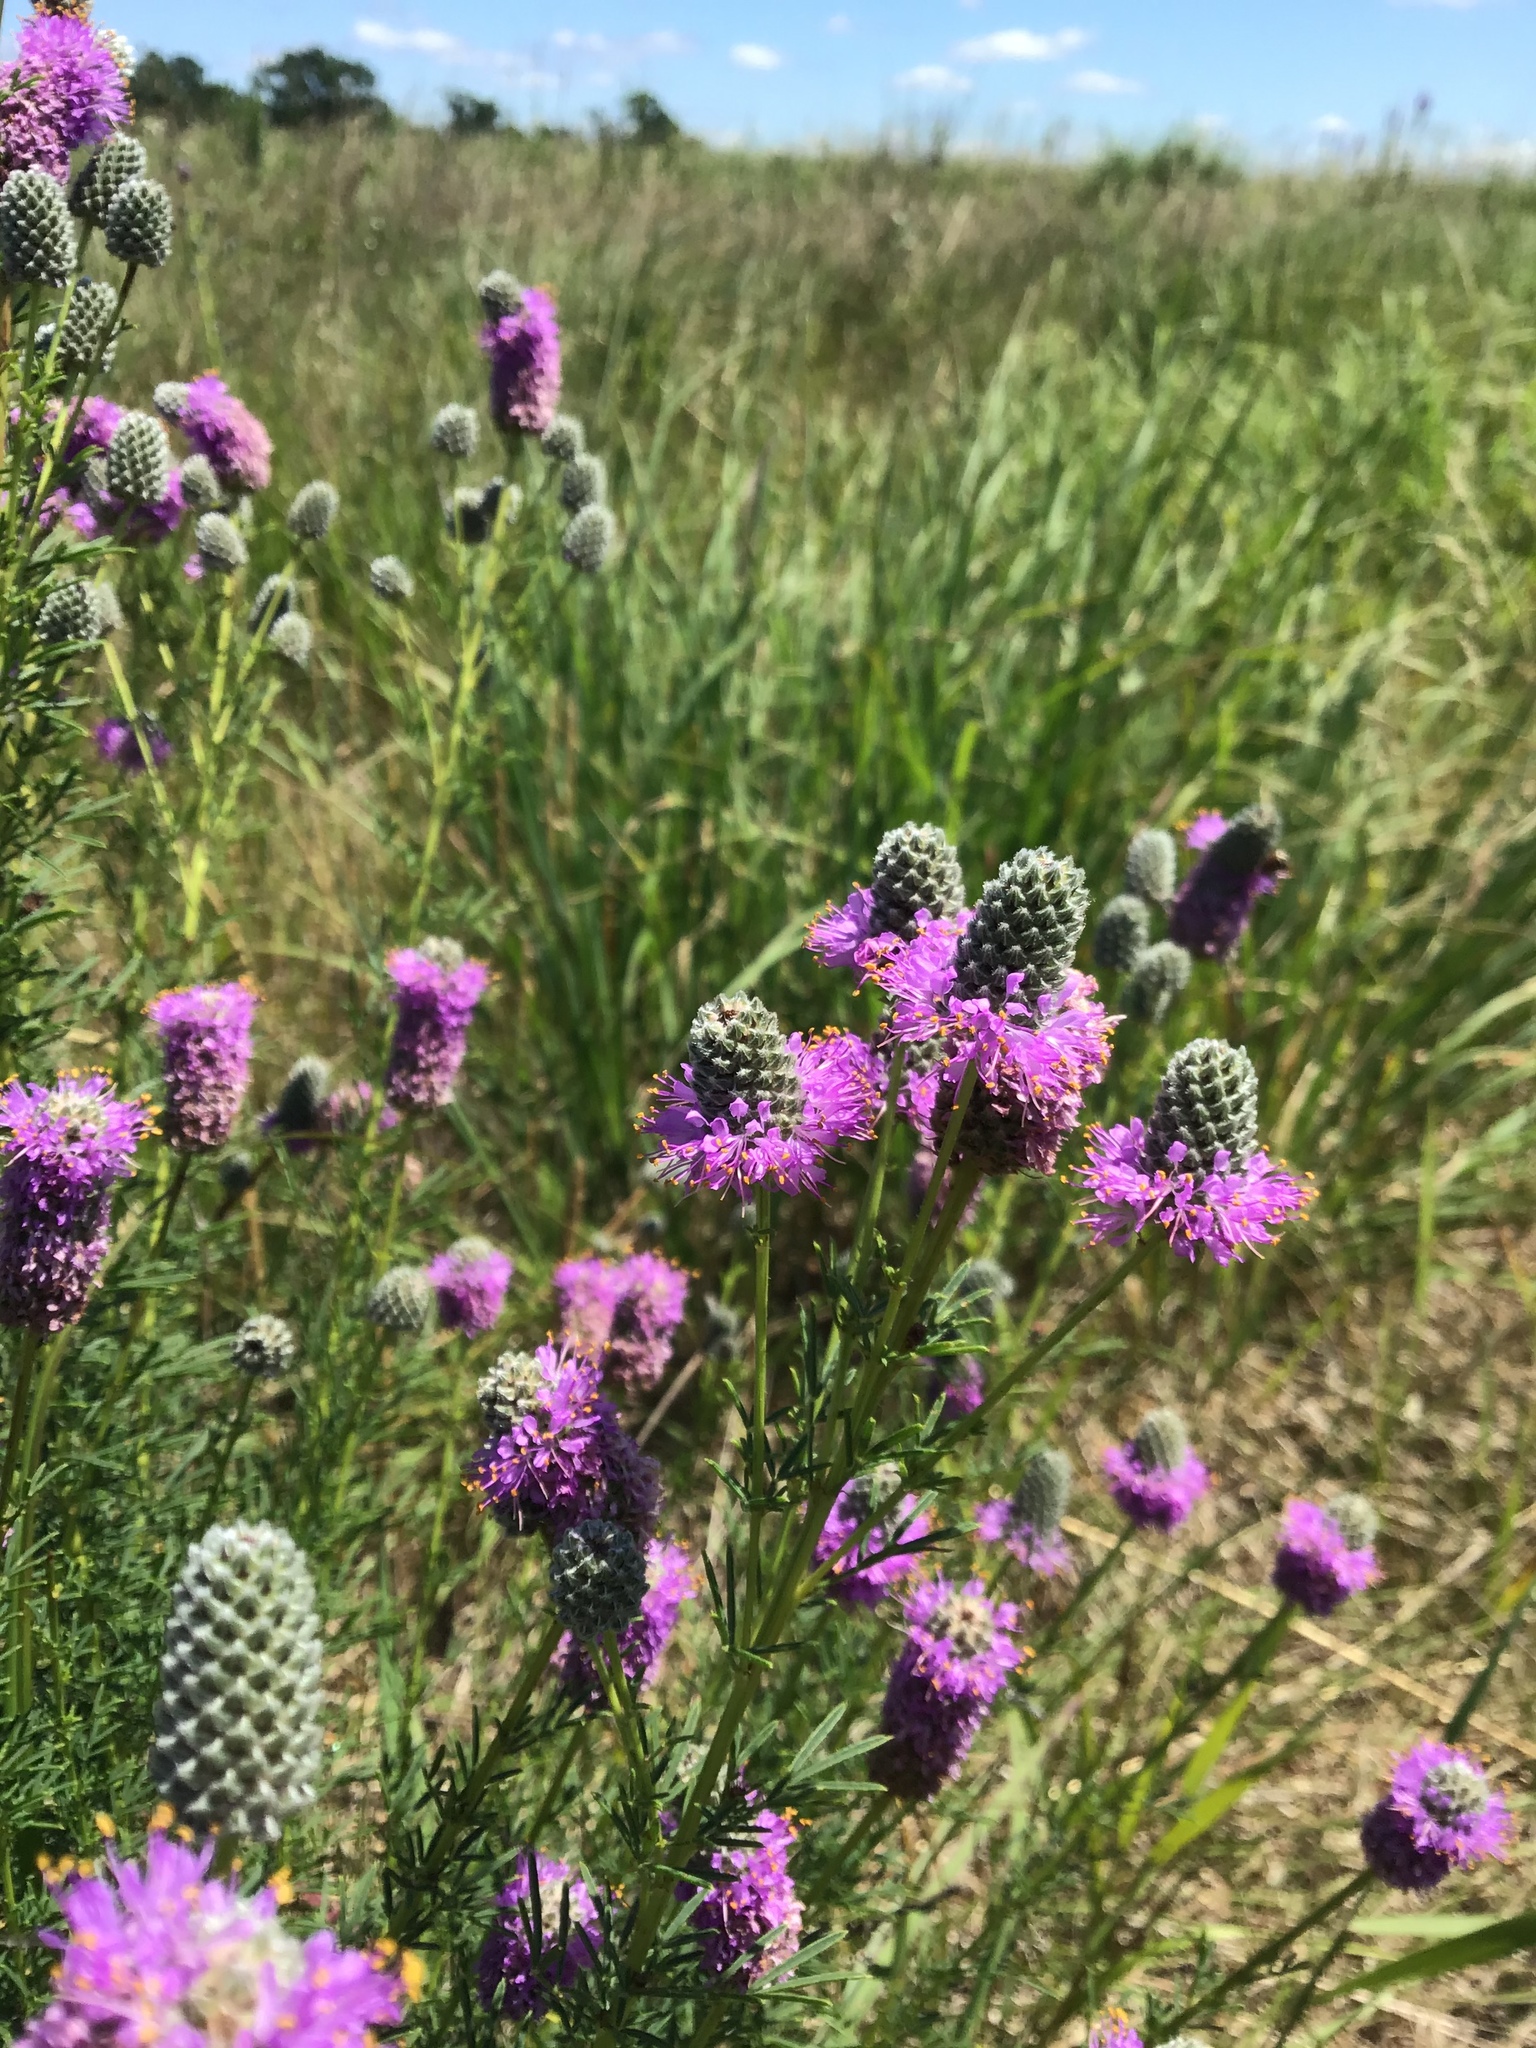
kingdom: Plantae
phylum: Tracheophyta
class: Magnoliopsida
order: Fabales
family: Fabaceae
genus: Dalea
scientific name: Dalea purpurea
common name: Purple prairie-clover
